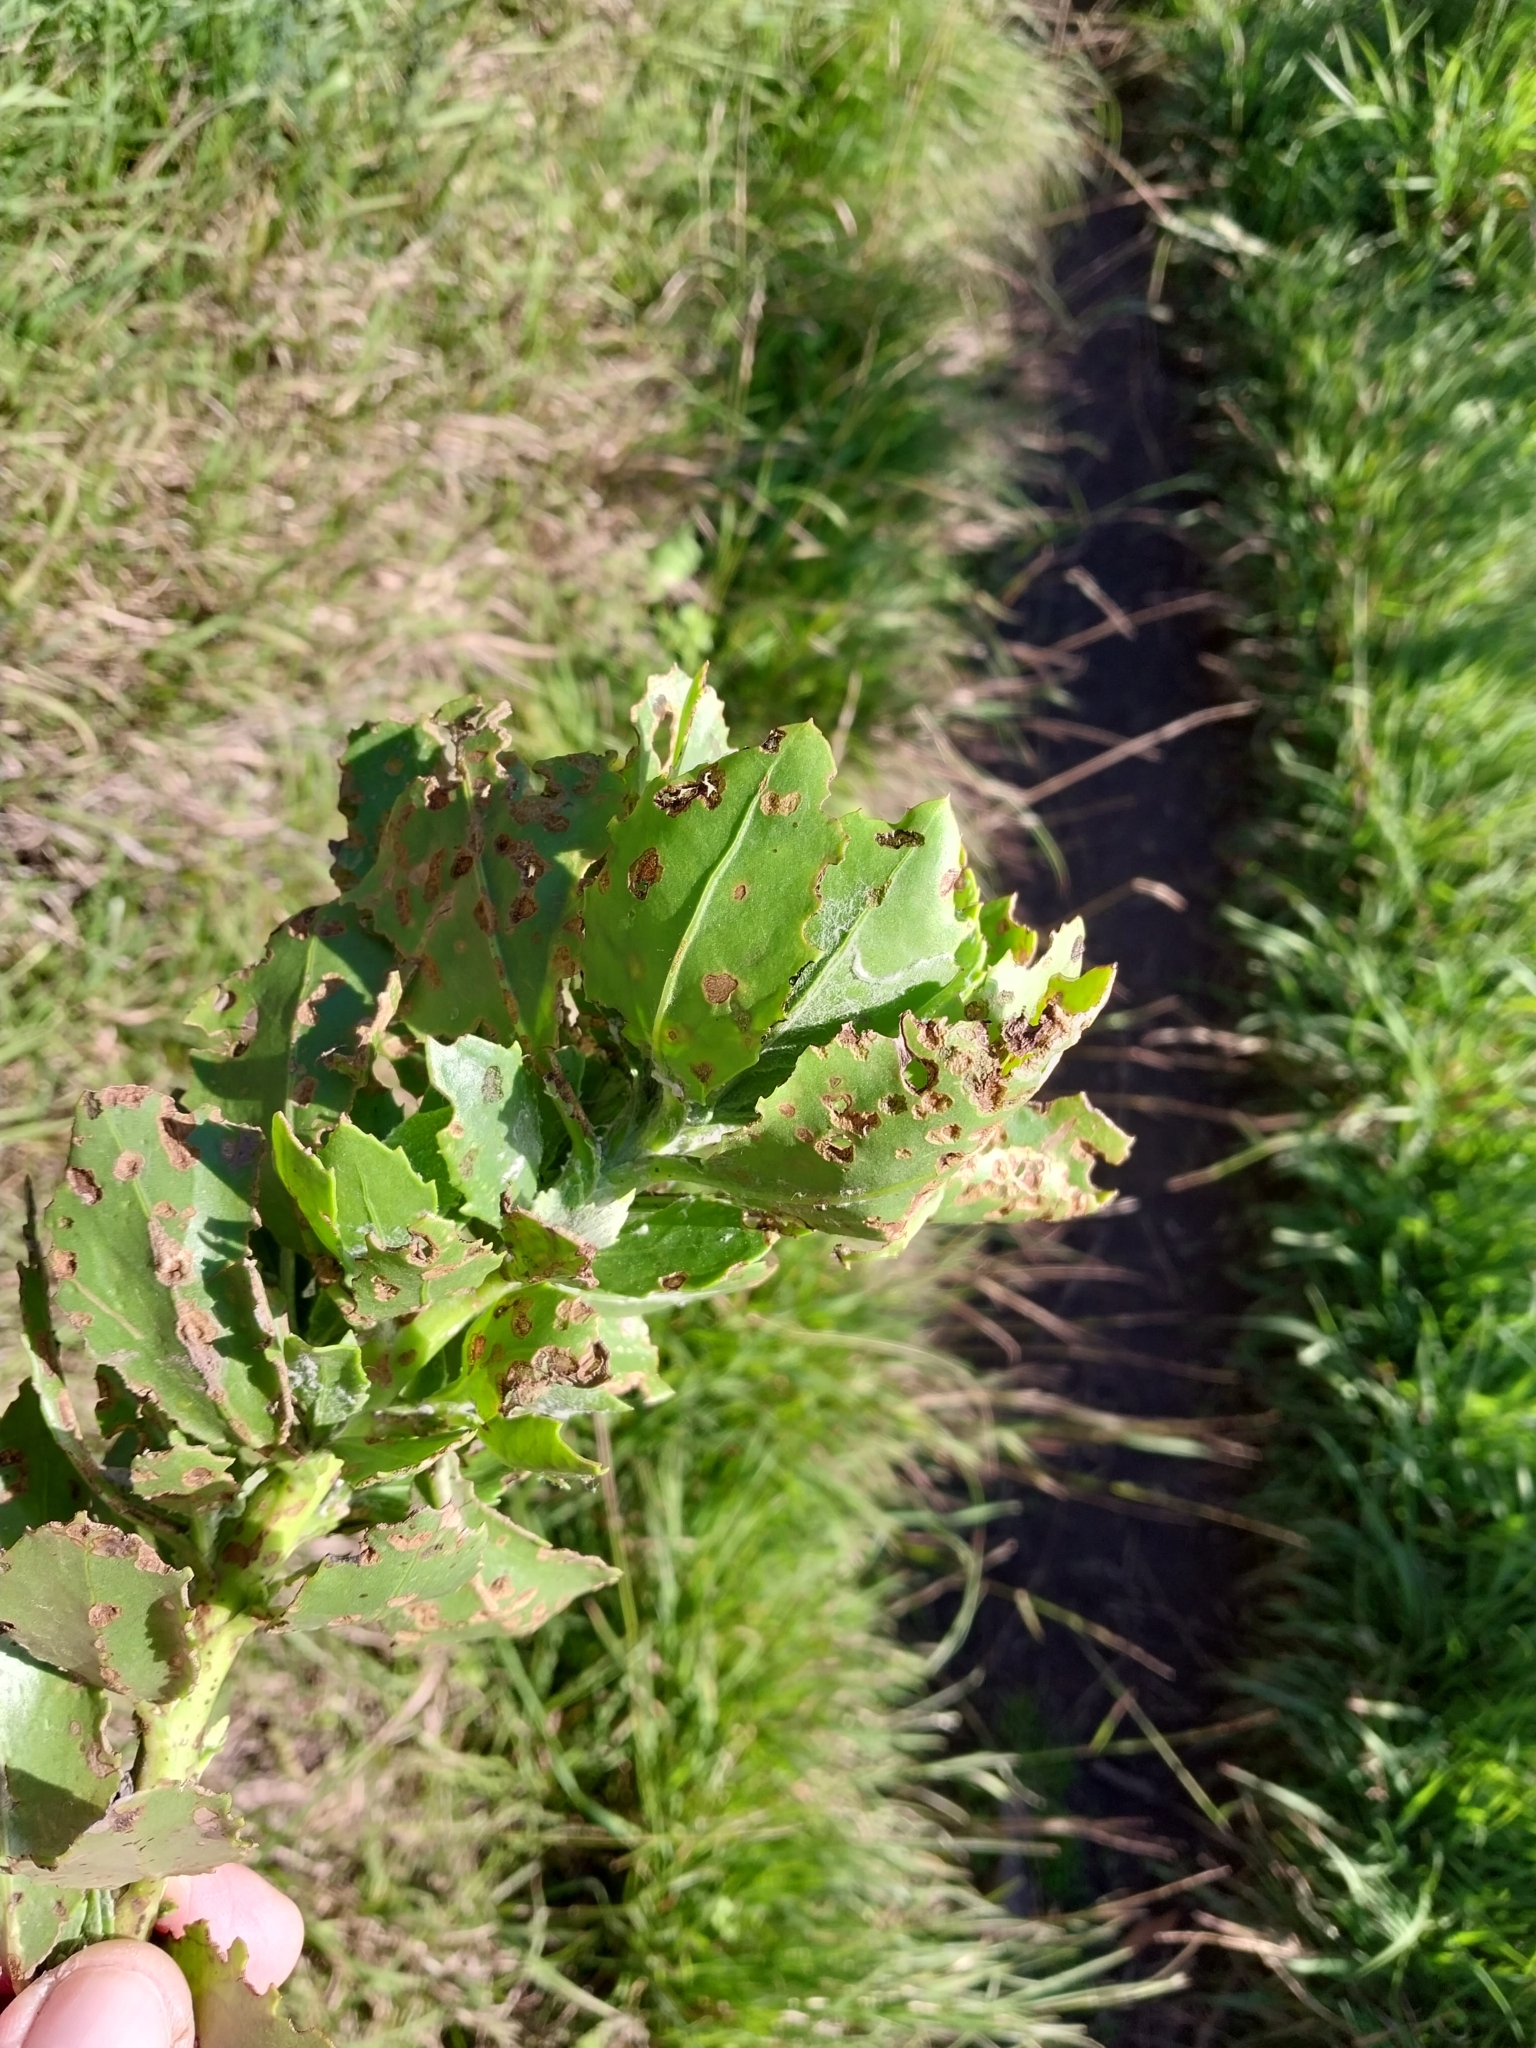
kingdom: Plantae
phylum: Tracheophyta
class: Magnoliopsida
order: Asterales
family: Asteraceae
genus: Osteospermum
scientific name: Osteospermum moniliferum
